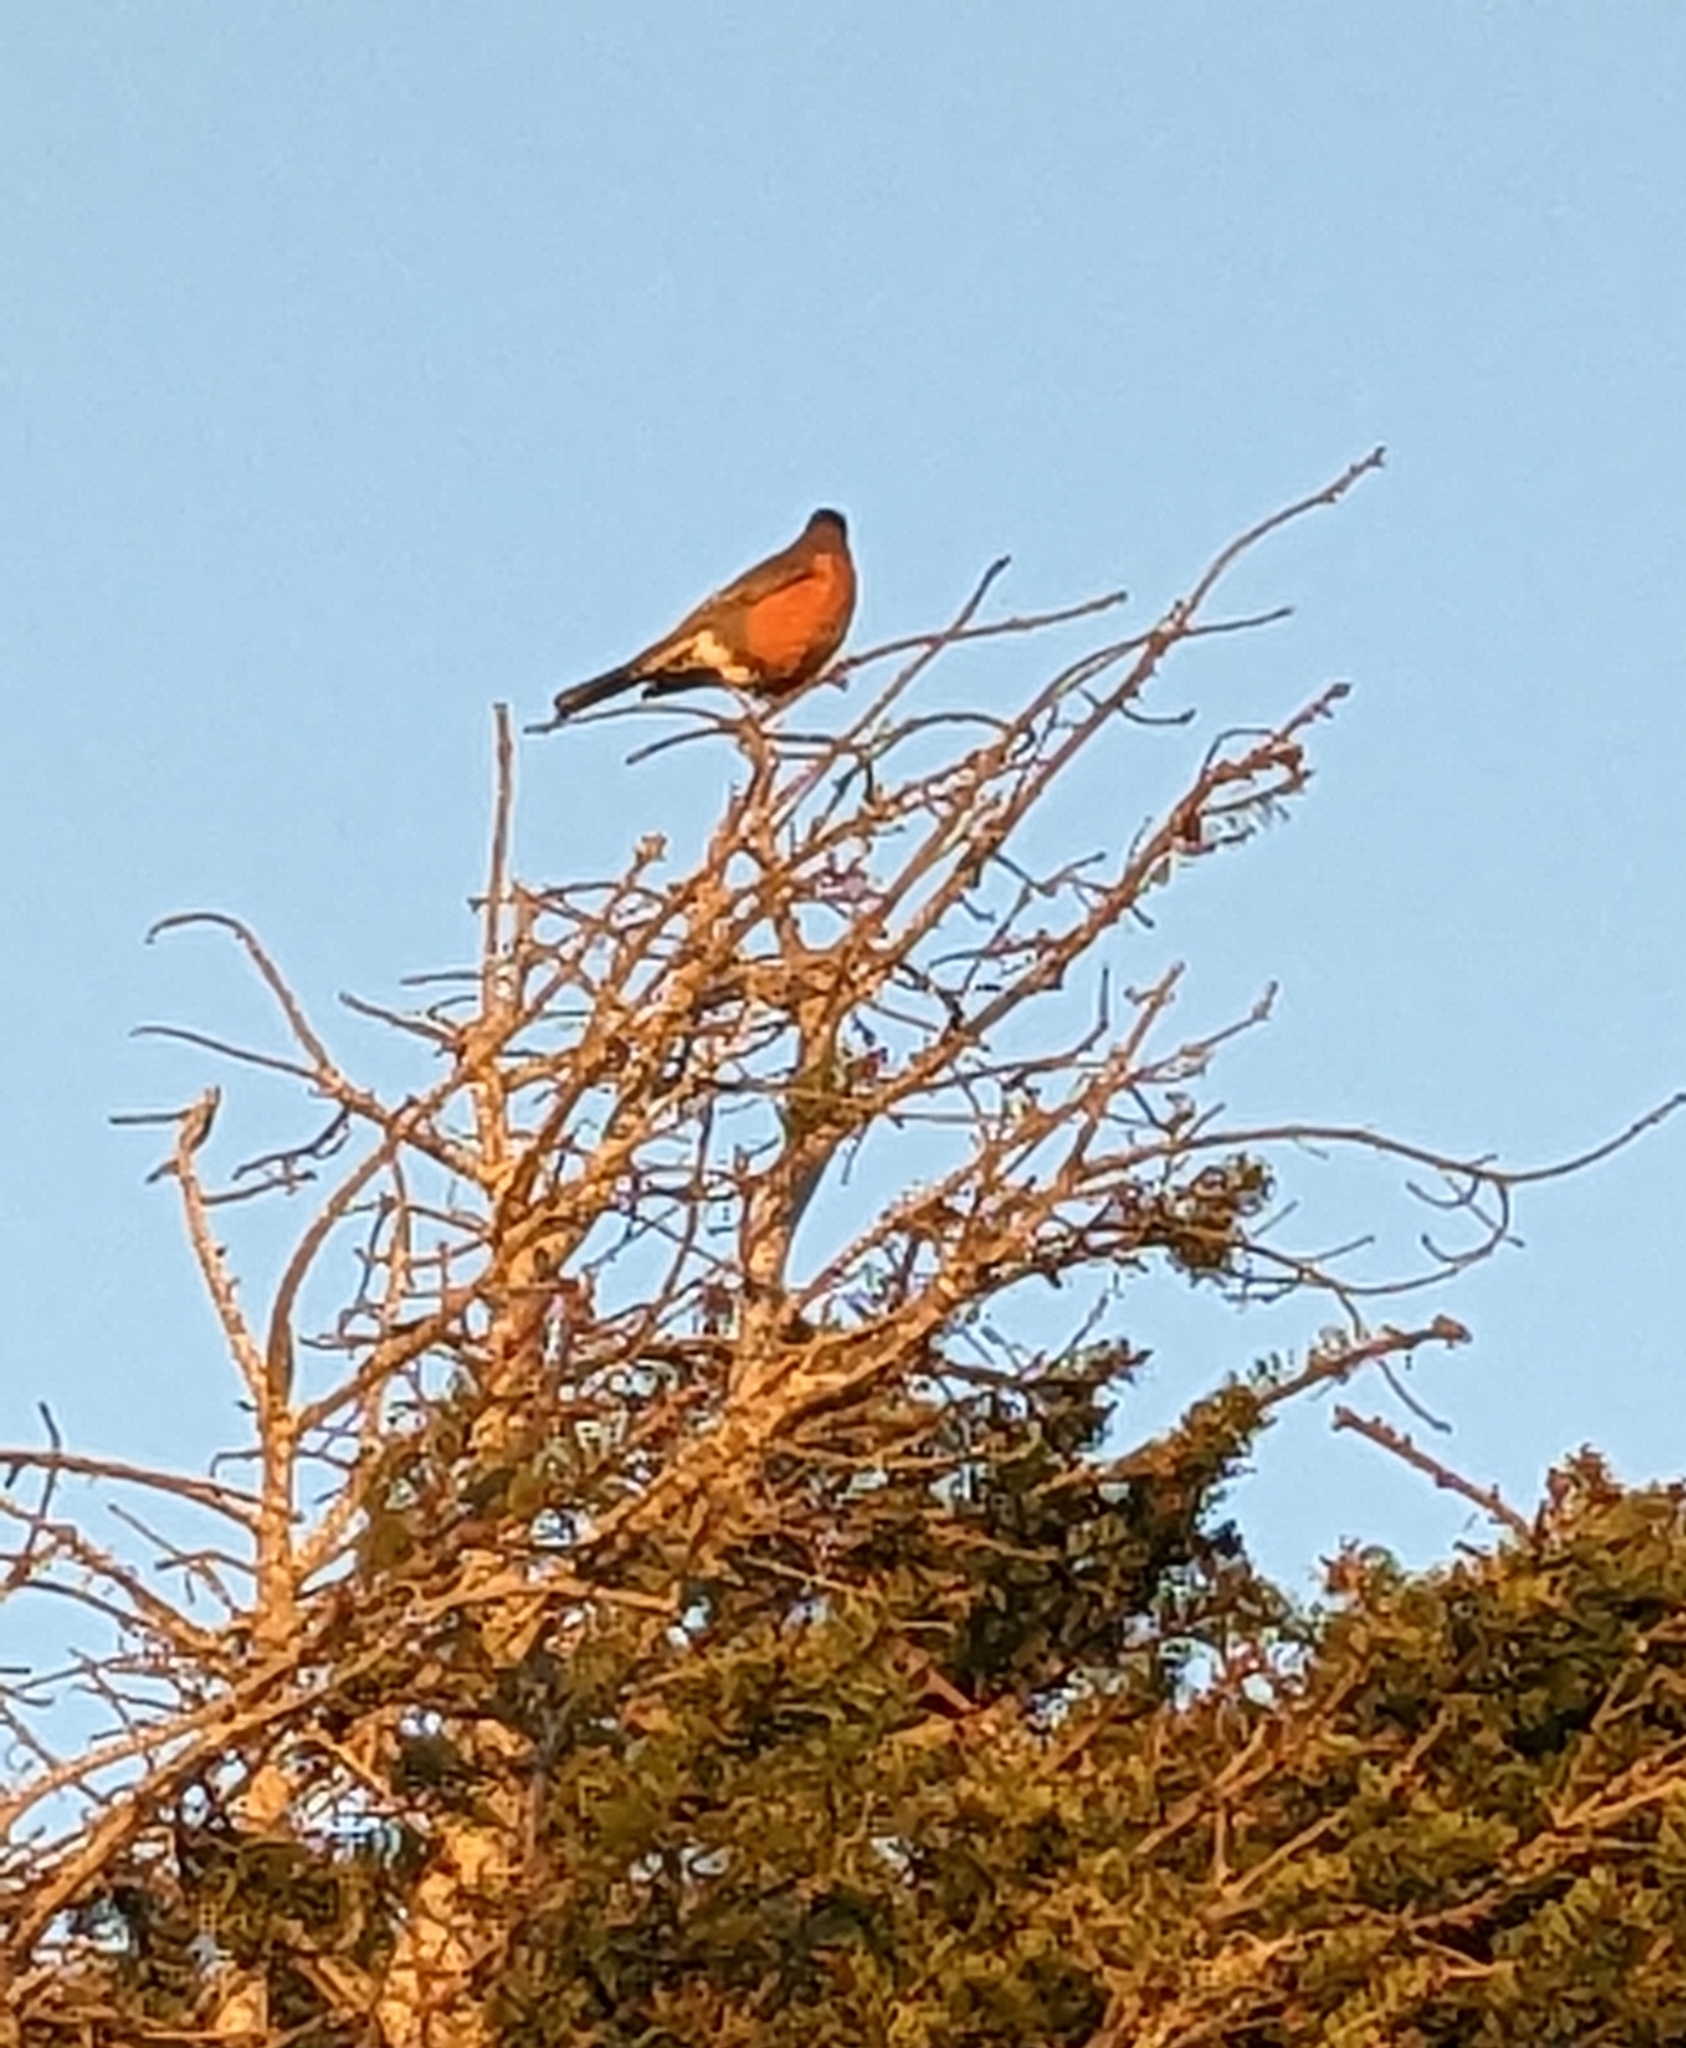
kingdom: Animalia
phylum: Chordata
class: Aves
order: Passeriformes
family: Turdidae
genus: Turdus
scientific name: Turdus migratorius
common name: American robin
